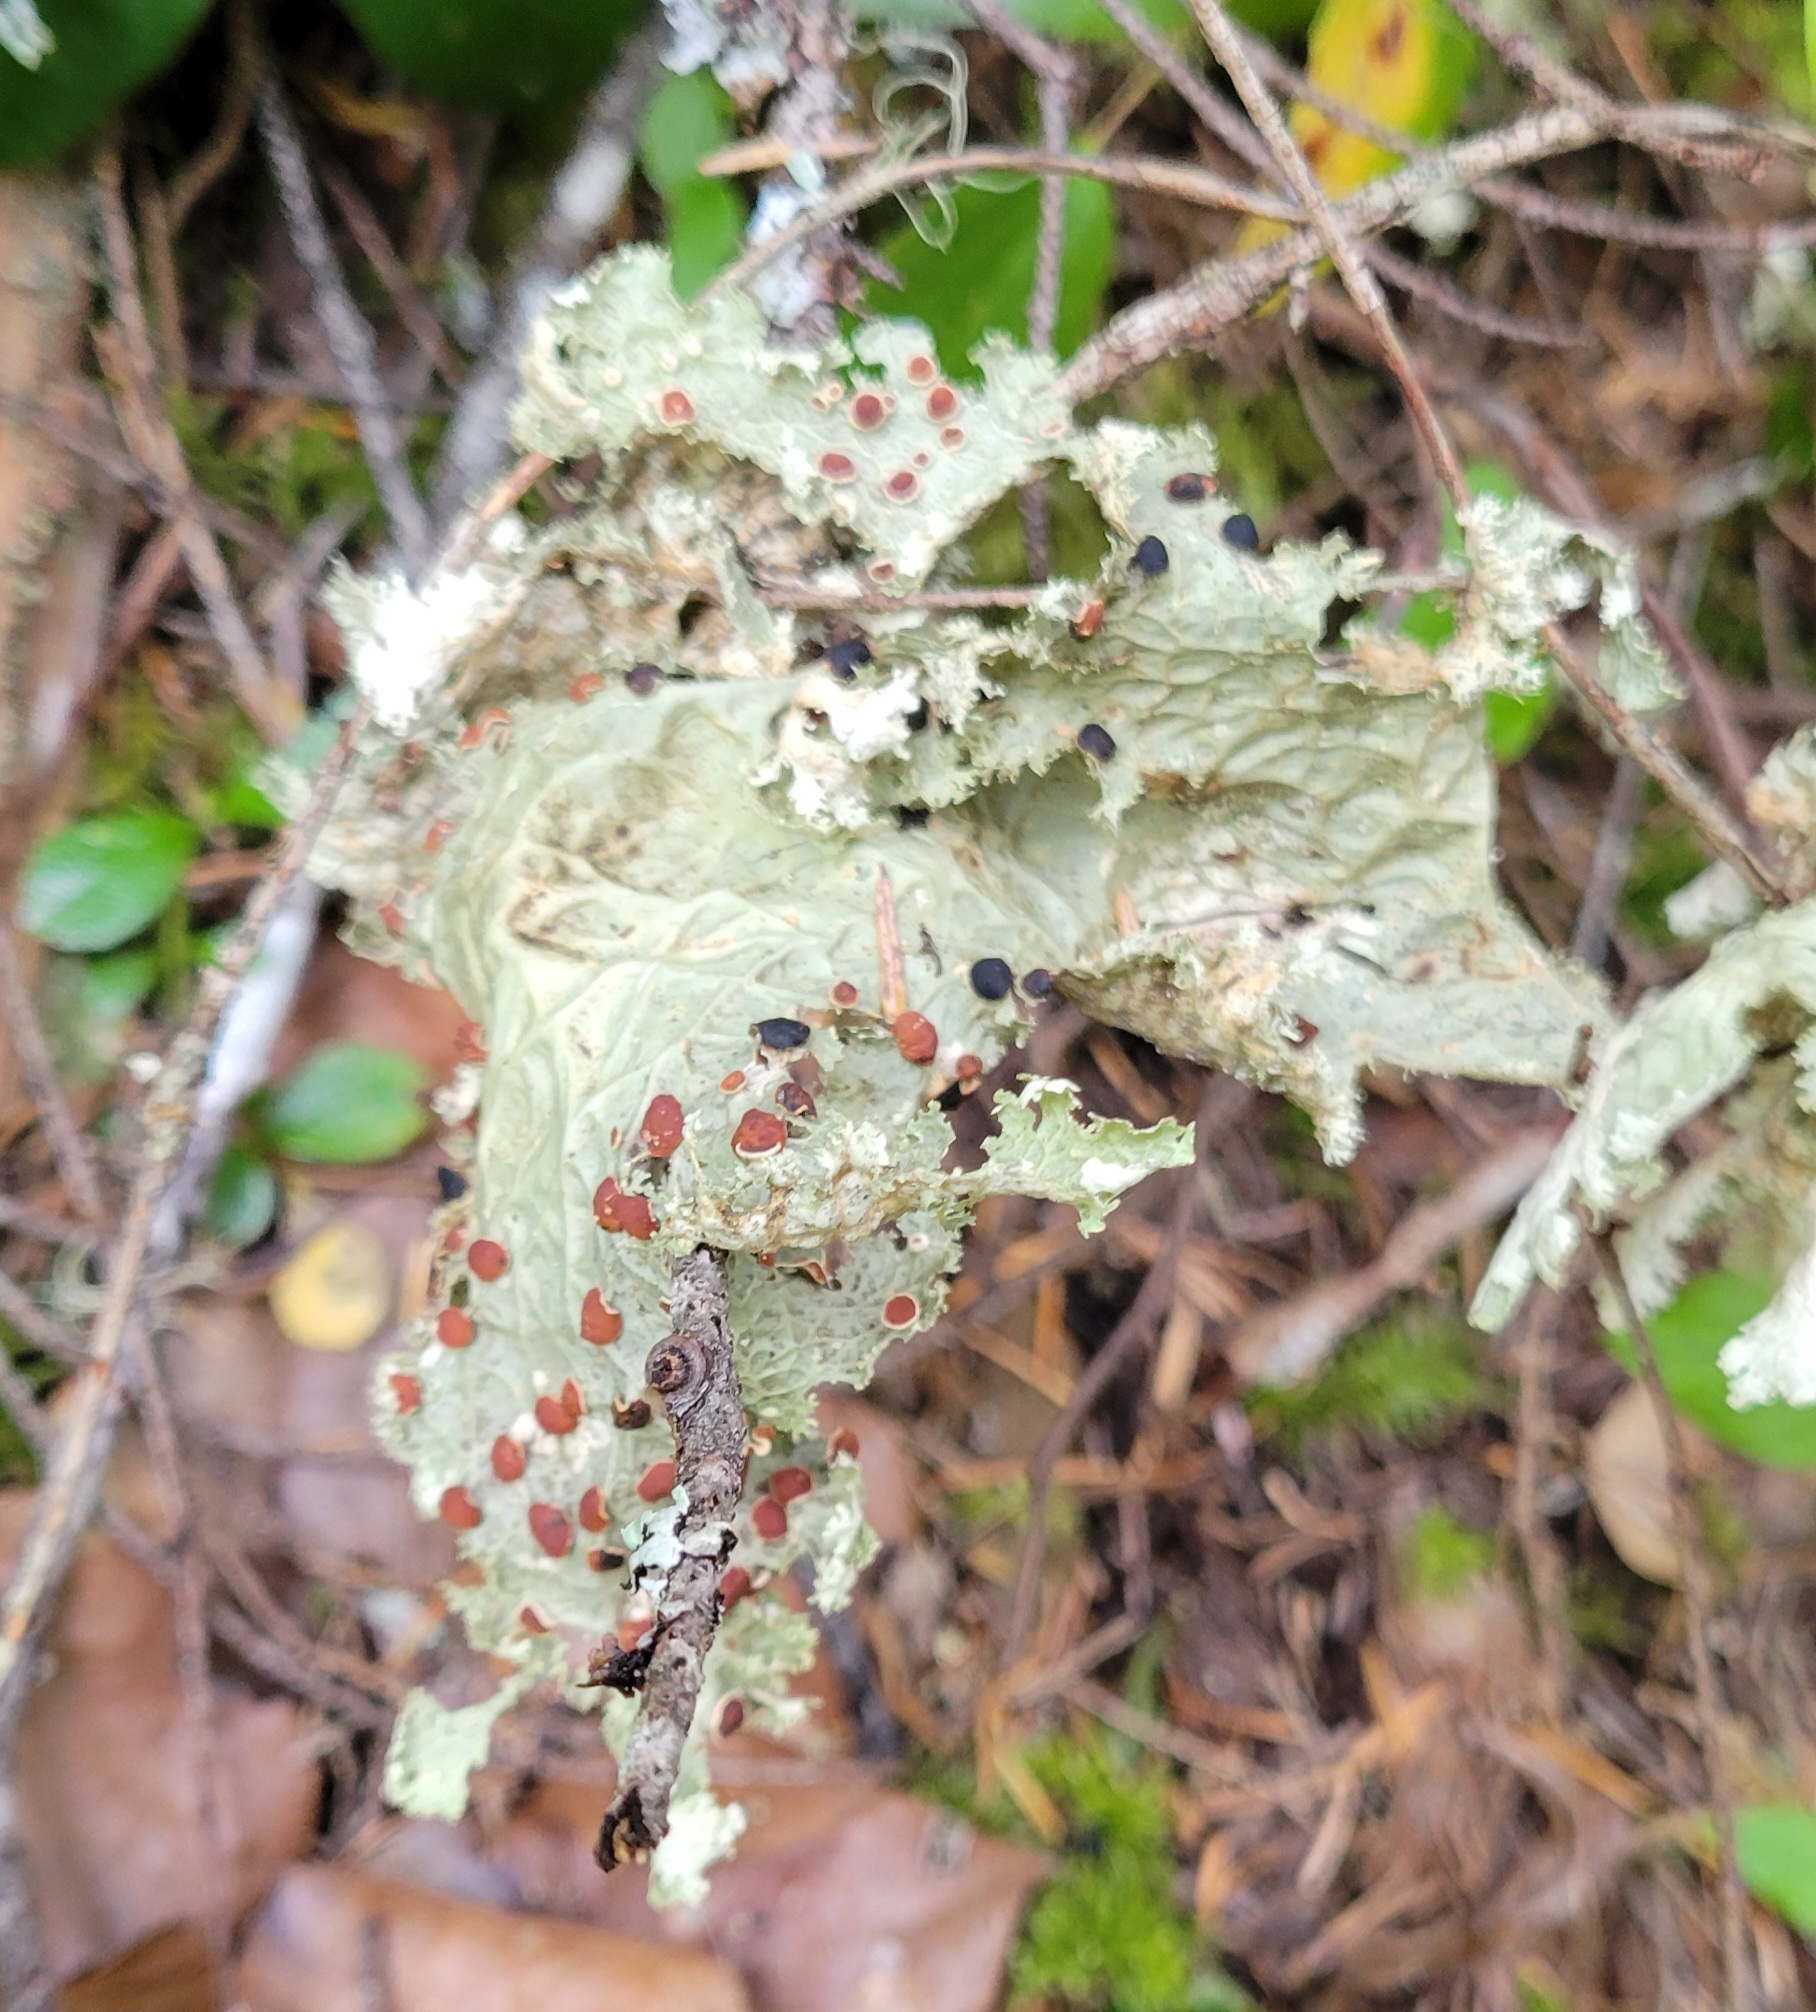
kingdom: Fungi
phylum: Ascomycota
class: Lecanoromycetes
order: Peltigerales
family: Lobariaceae
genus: Lobaria
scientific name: Lobaria oregana
